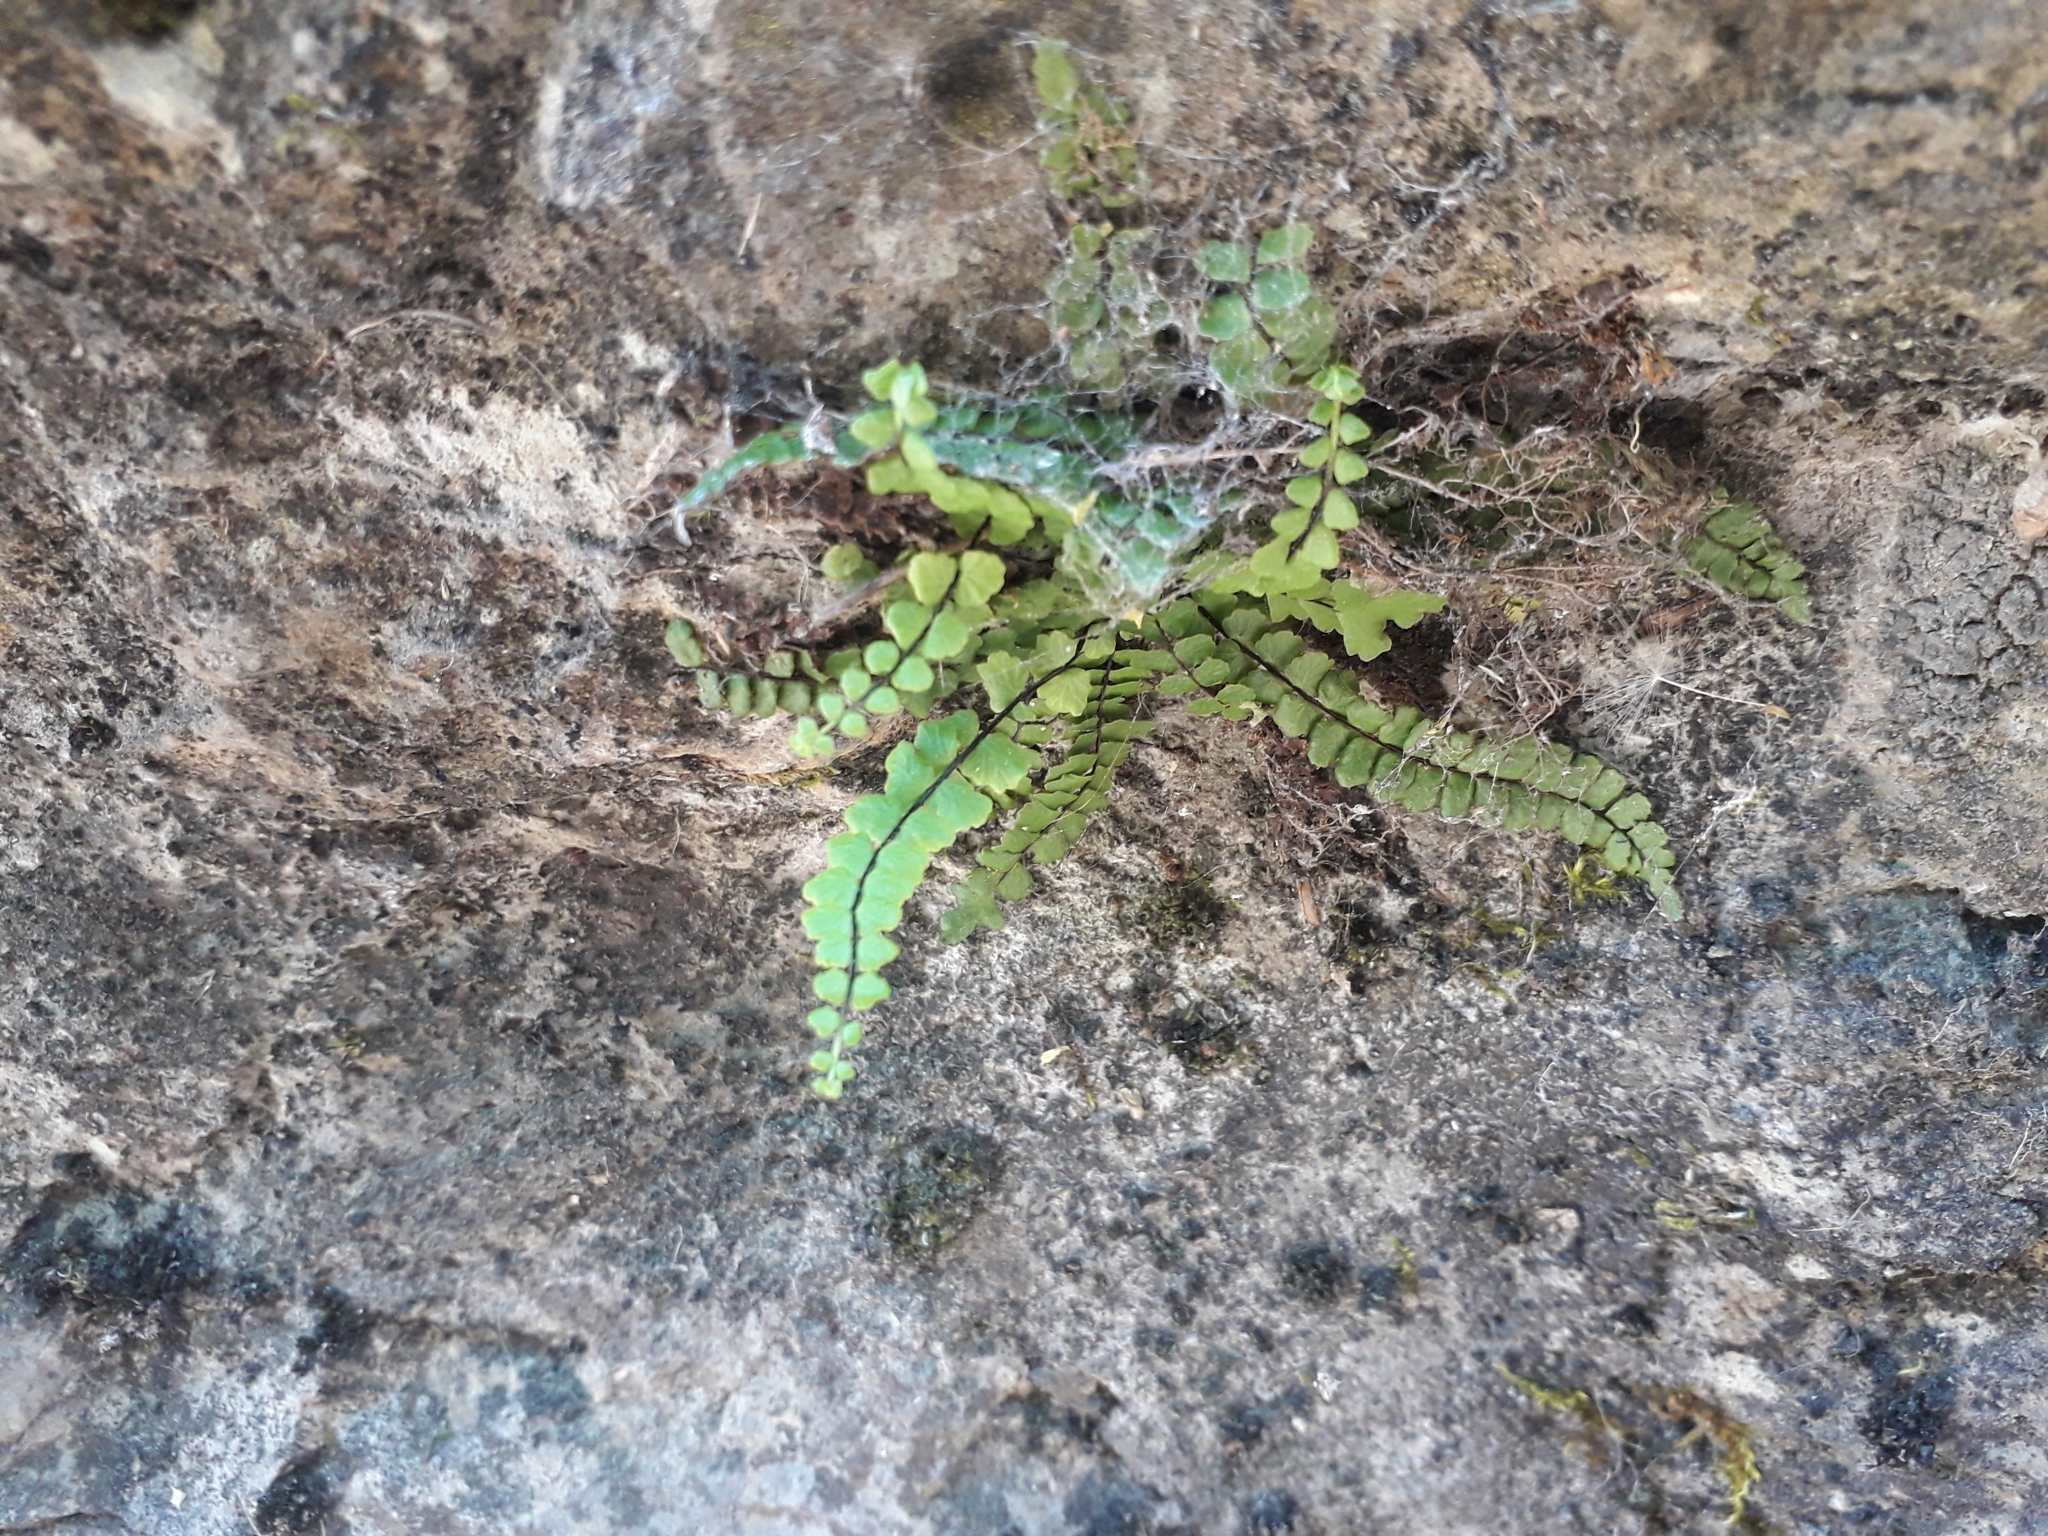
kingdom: Plantae
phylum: Tracheophyta
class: Polypodiopsida
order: Polypodiales
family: Aspleniaceae
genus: Asplenium
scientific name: Asplenium trichomanes
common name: Maidenhair spleenwort
